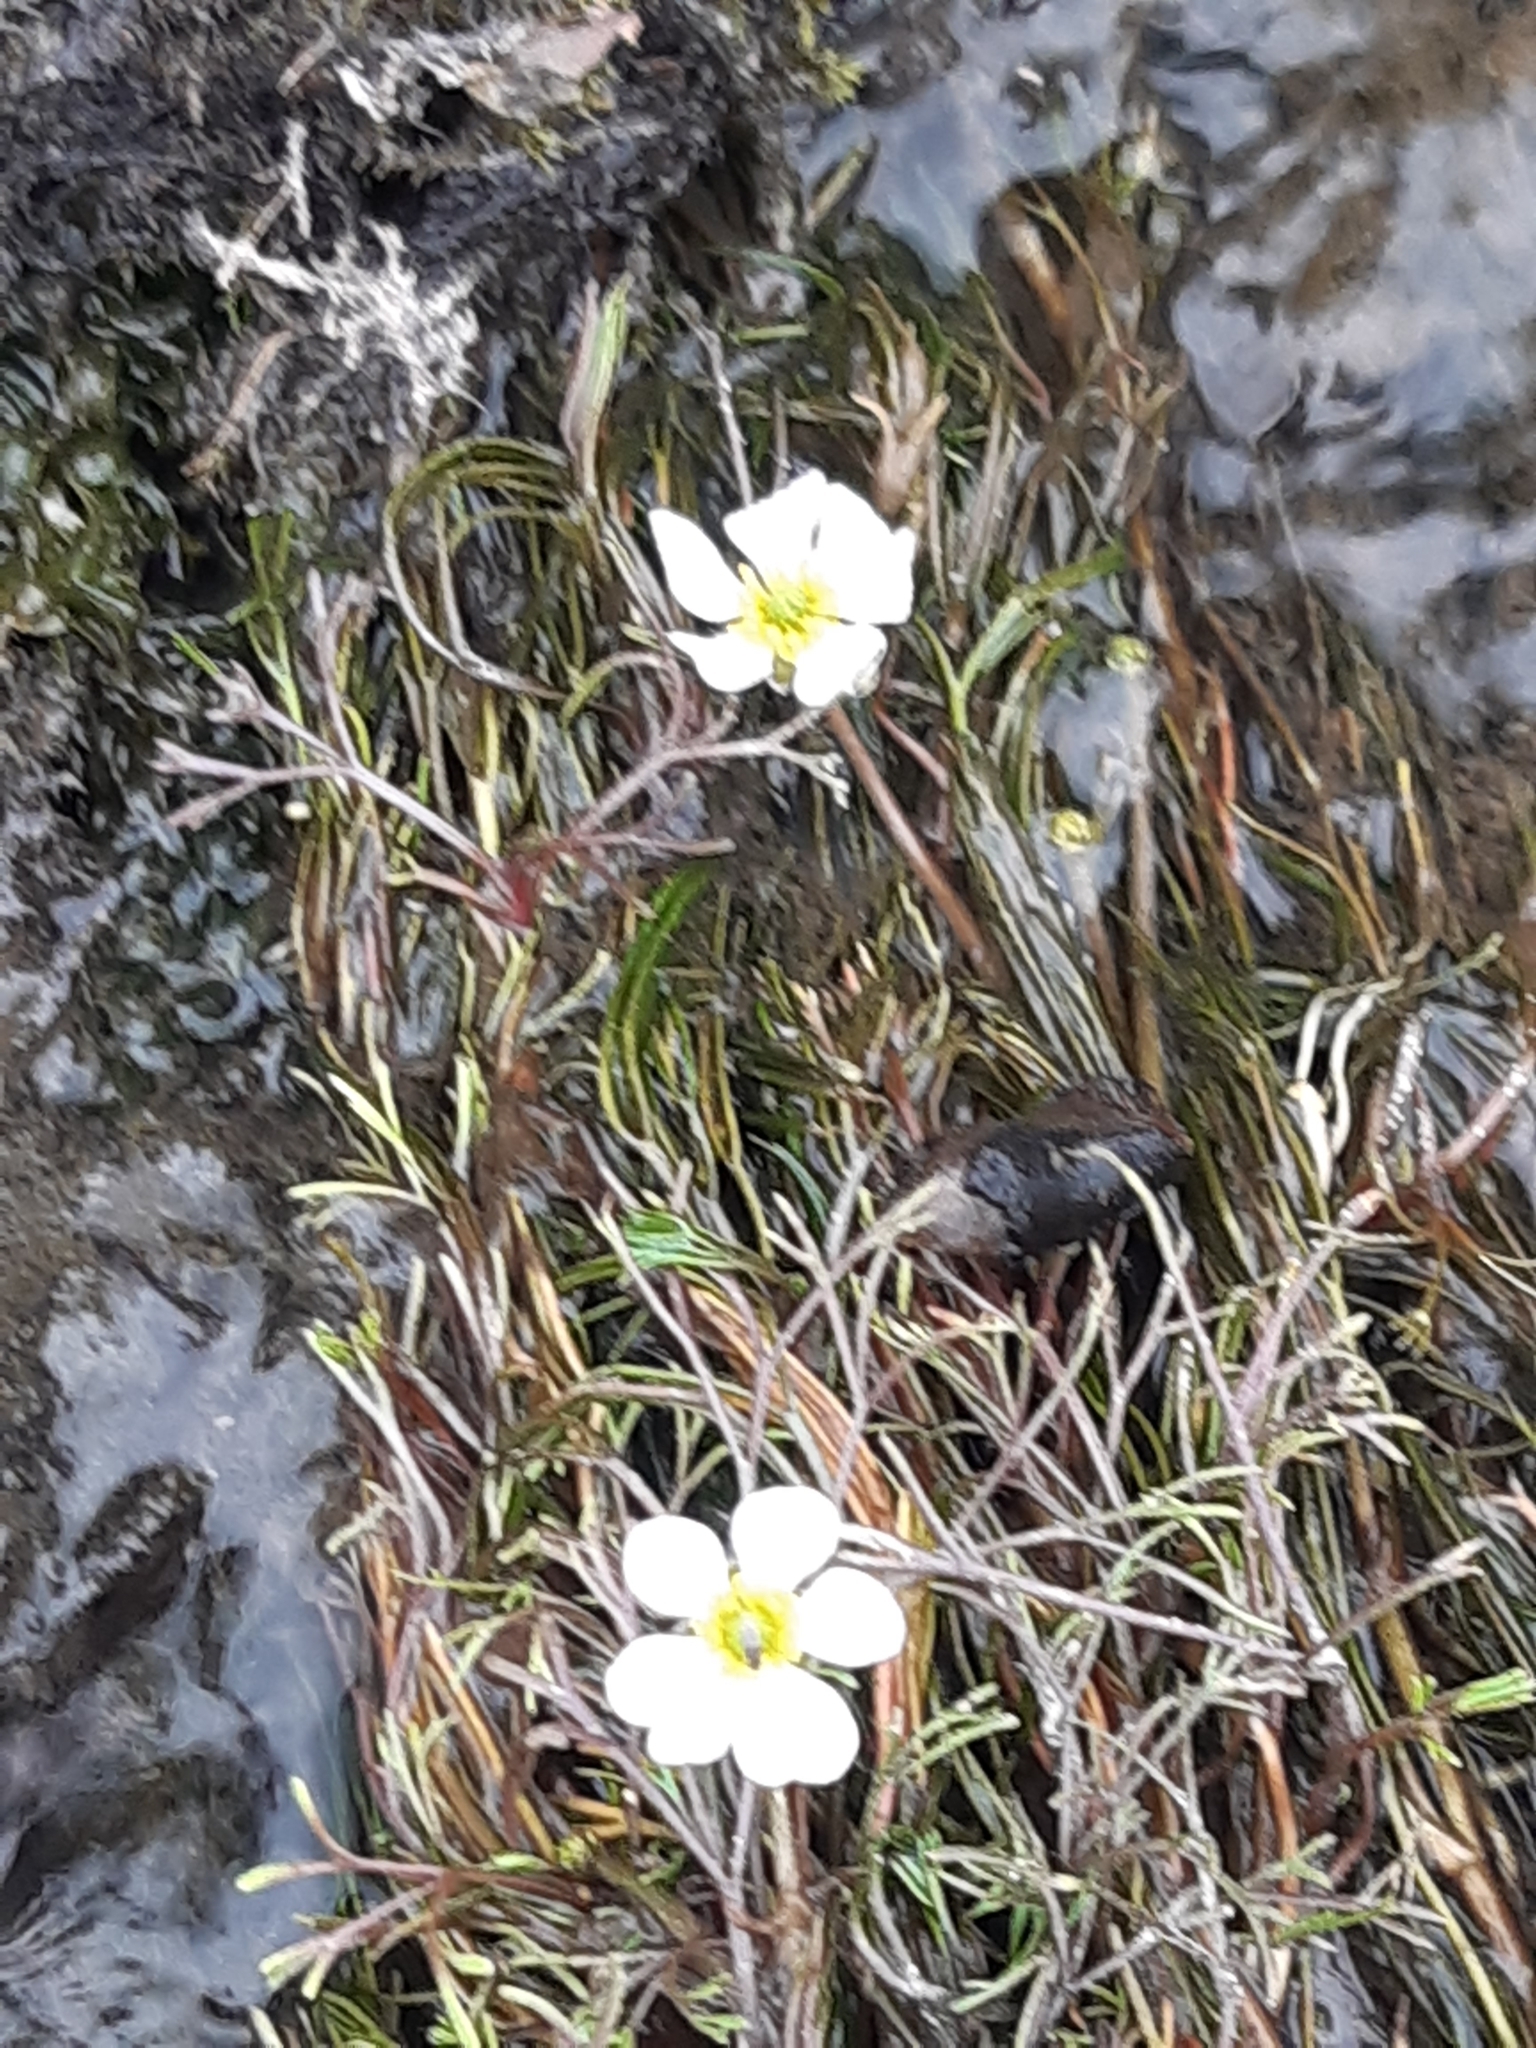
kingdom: Plantae
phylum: Tracheophyta
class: Magnoliopsida
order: Ranunculales
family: Ranunculaceae
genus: Ranunculus
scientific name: Ranunculus fluitans
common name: River water-crowfoot
